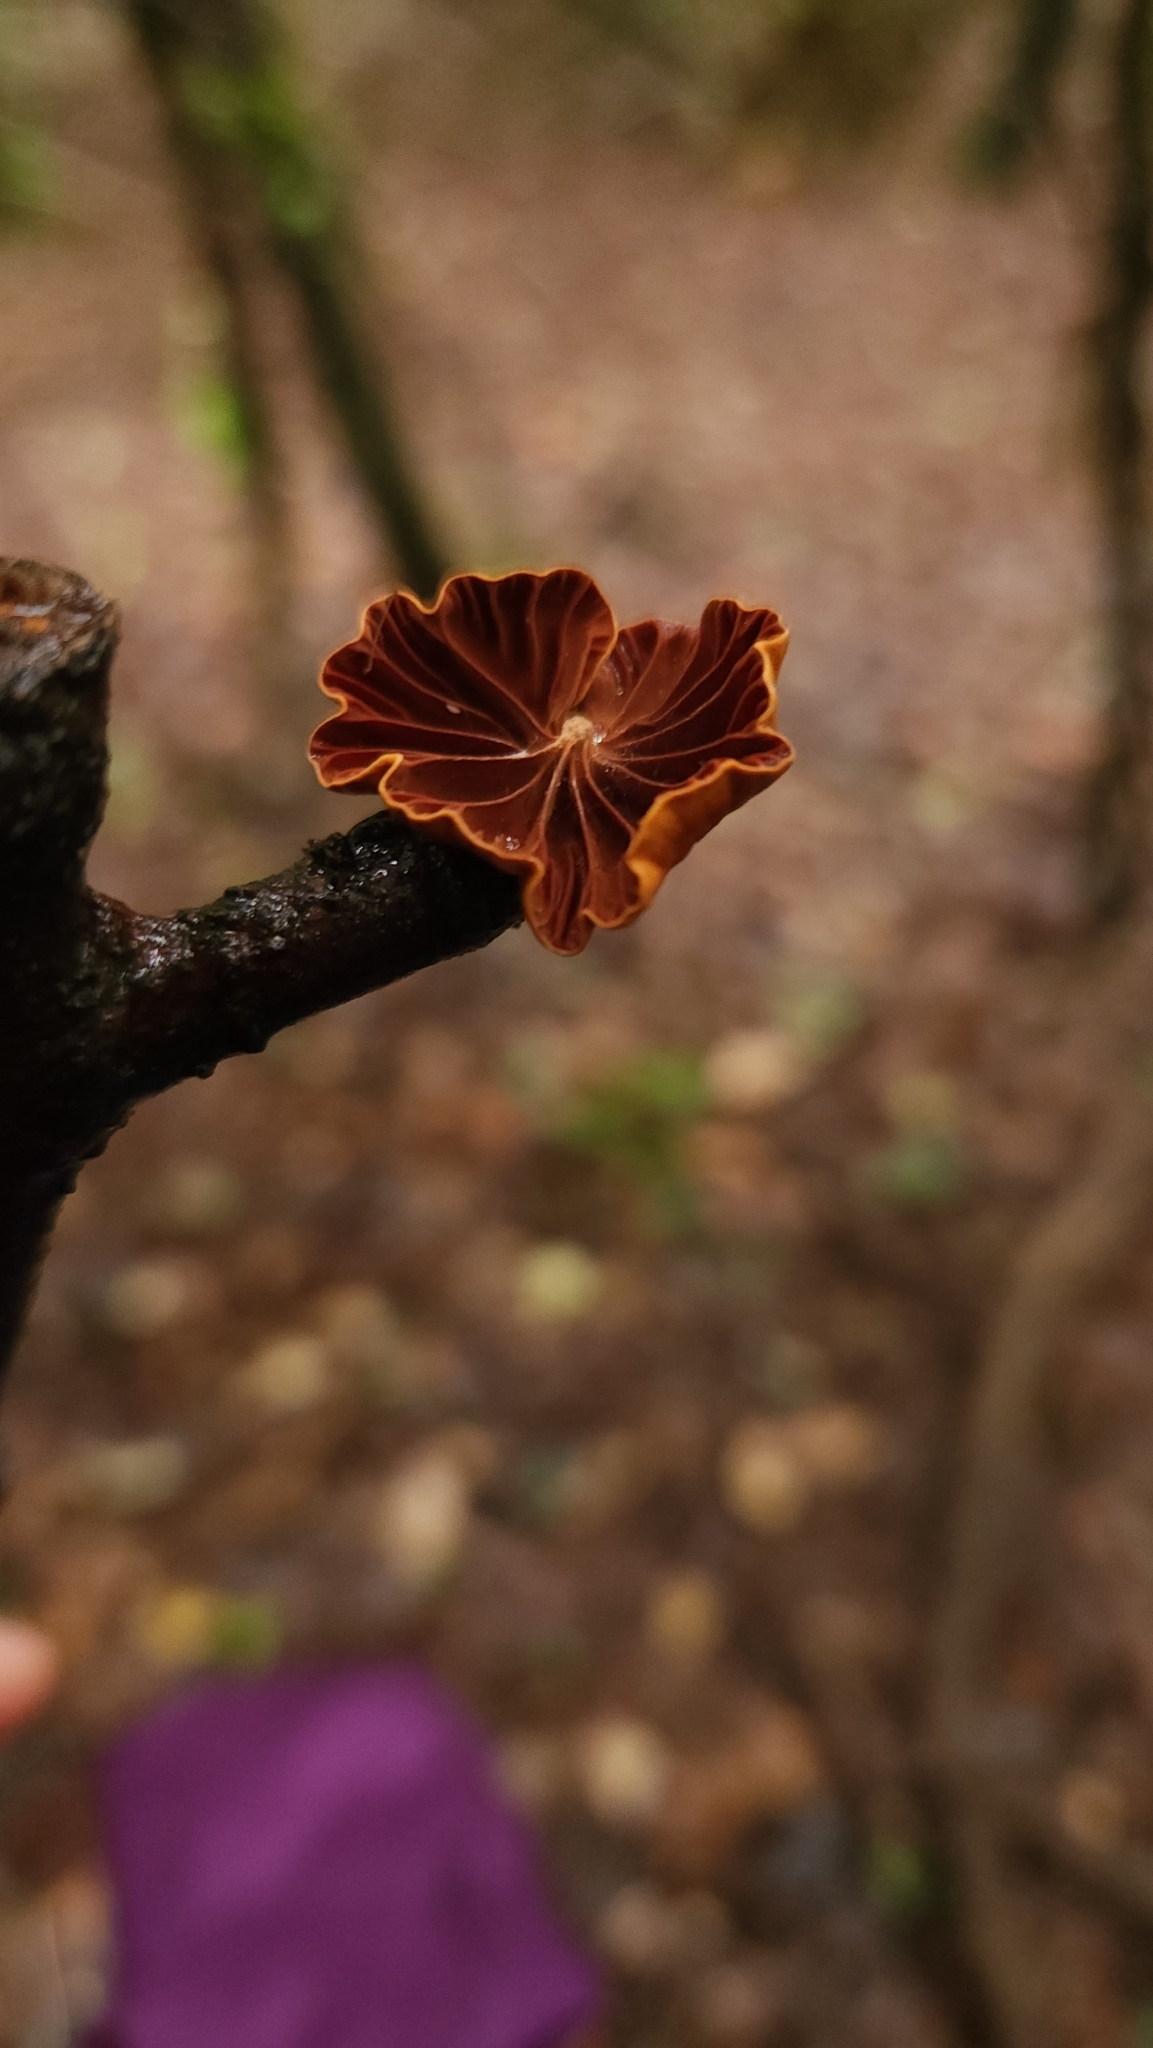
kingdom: Fungi
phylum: Basidiomycota
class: Agaricomycetes
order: Agaricales
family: Omphalotaceae
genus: Anthracophyllum
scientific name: Anthracophyllum discolor
